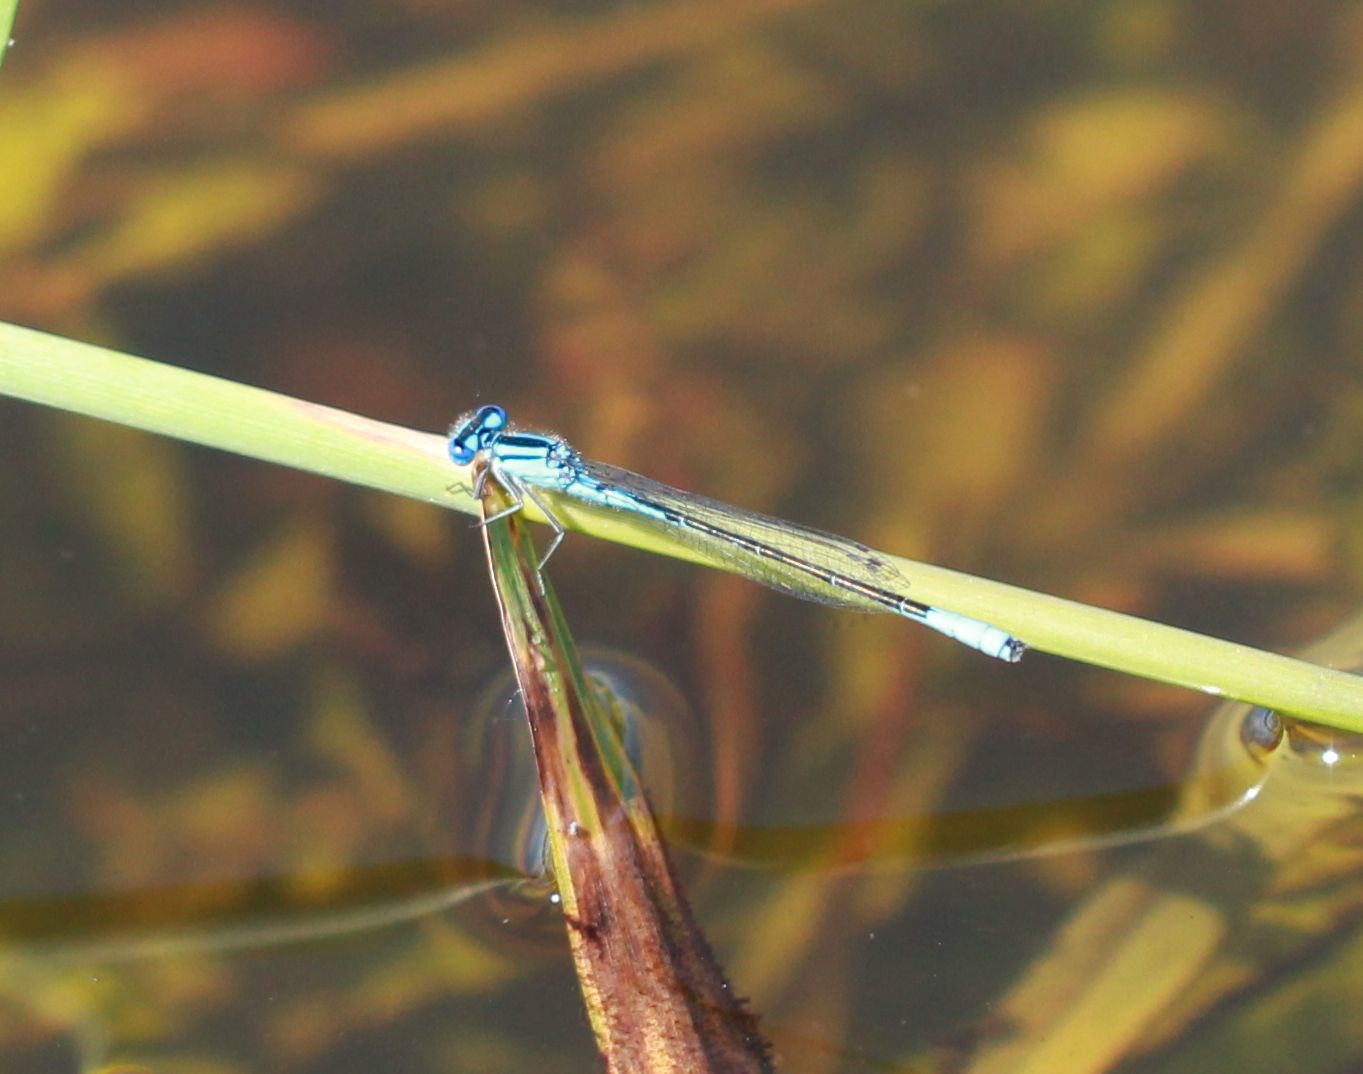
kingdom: Animalia
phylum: Arthropoda
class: Insecta
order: Odonata
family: Coenagrionidae
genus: Enallagma
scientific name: Enallagma aspersum
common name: Azure bluet
